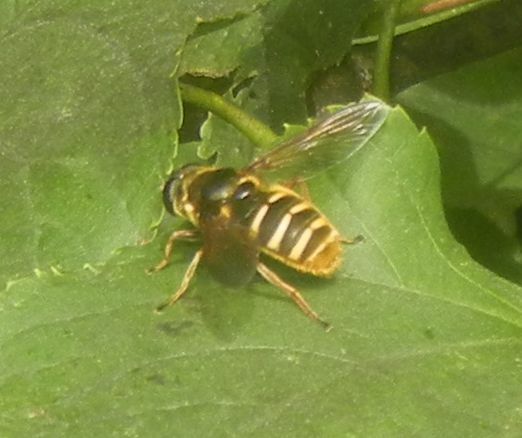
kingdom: Animalia
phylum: Arthropoda
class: Insecta
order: Diptera
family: Syrphidae
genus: Sericomyia
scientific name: Sericomyia silentis
